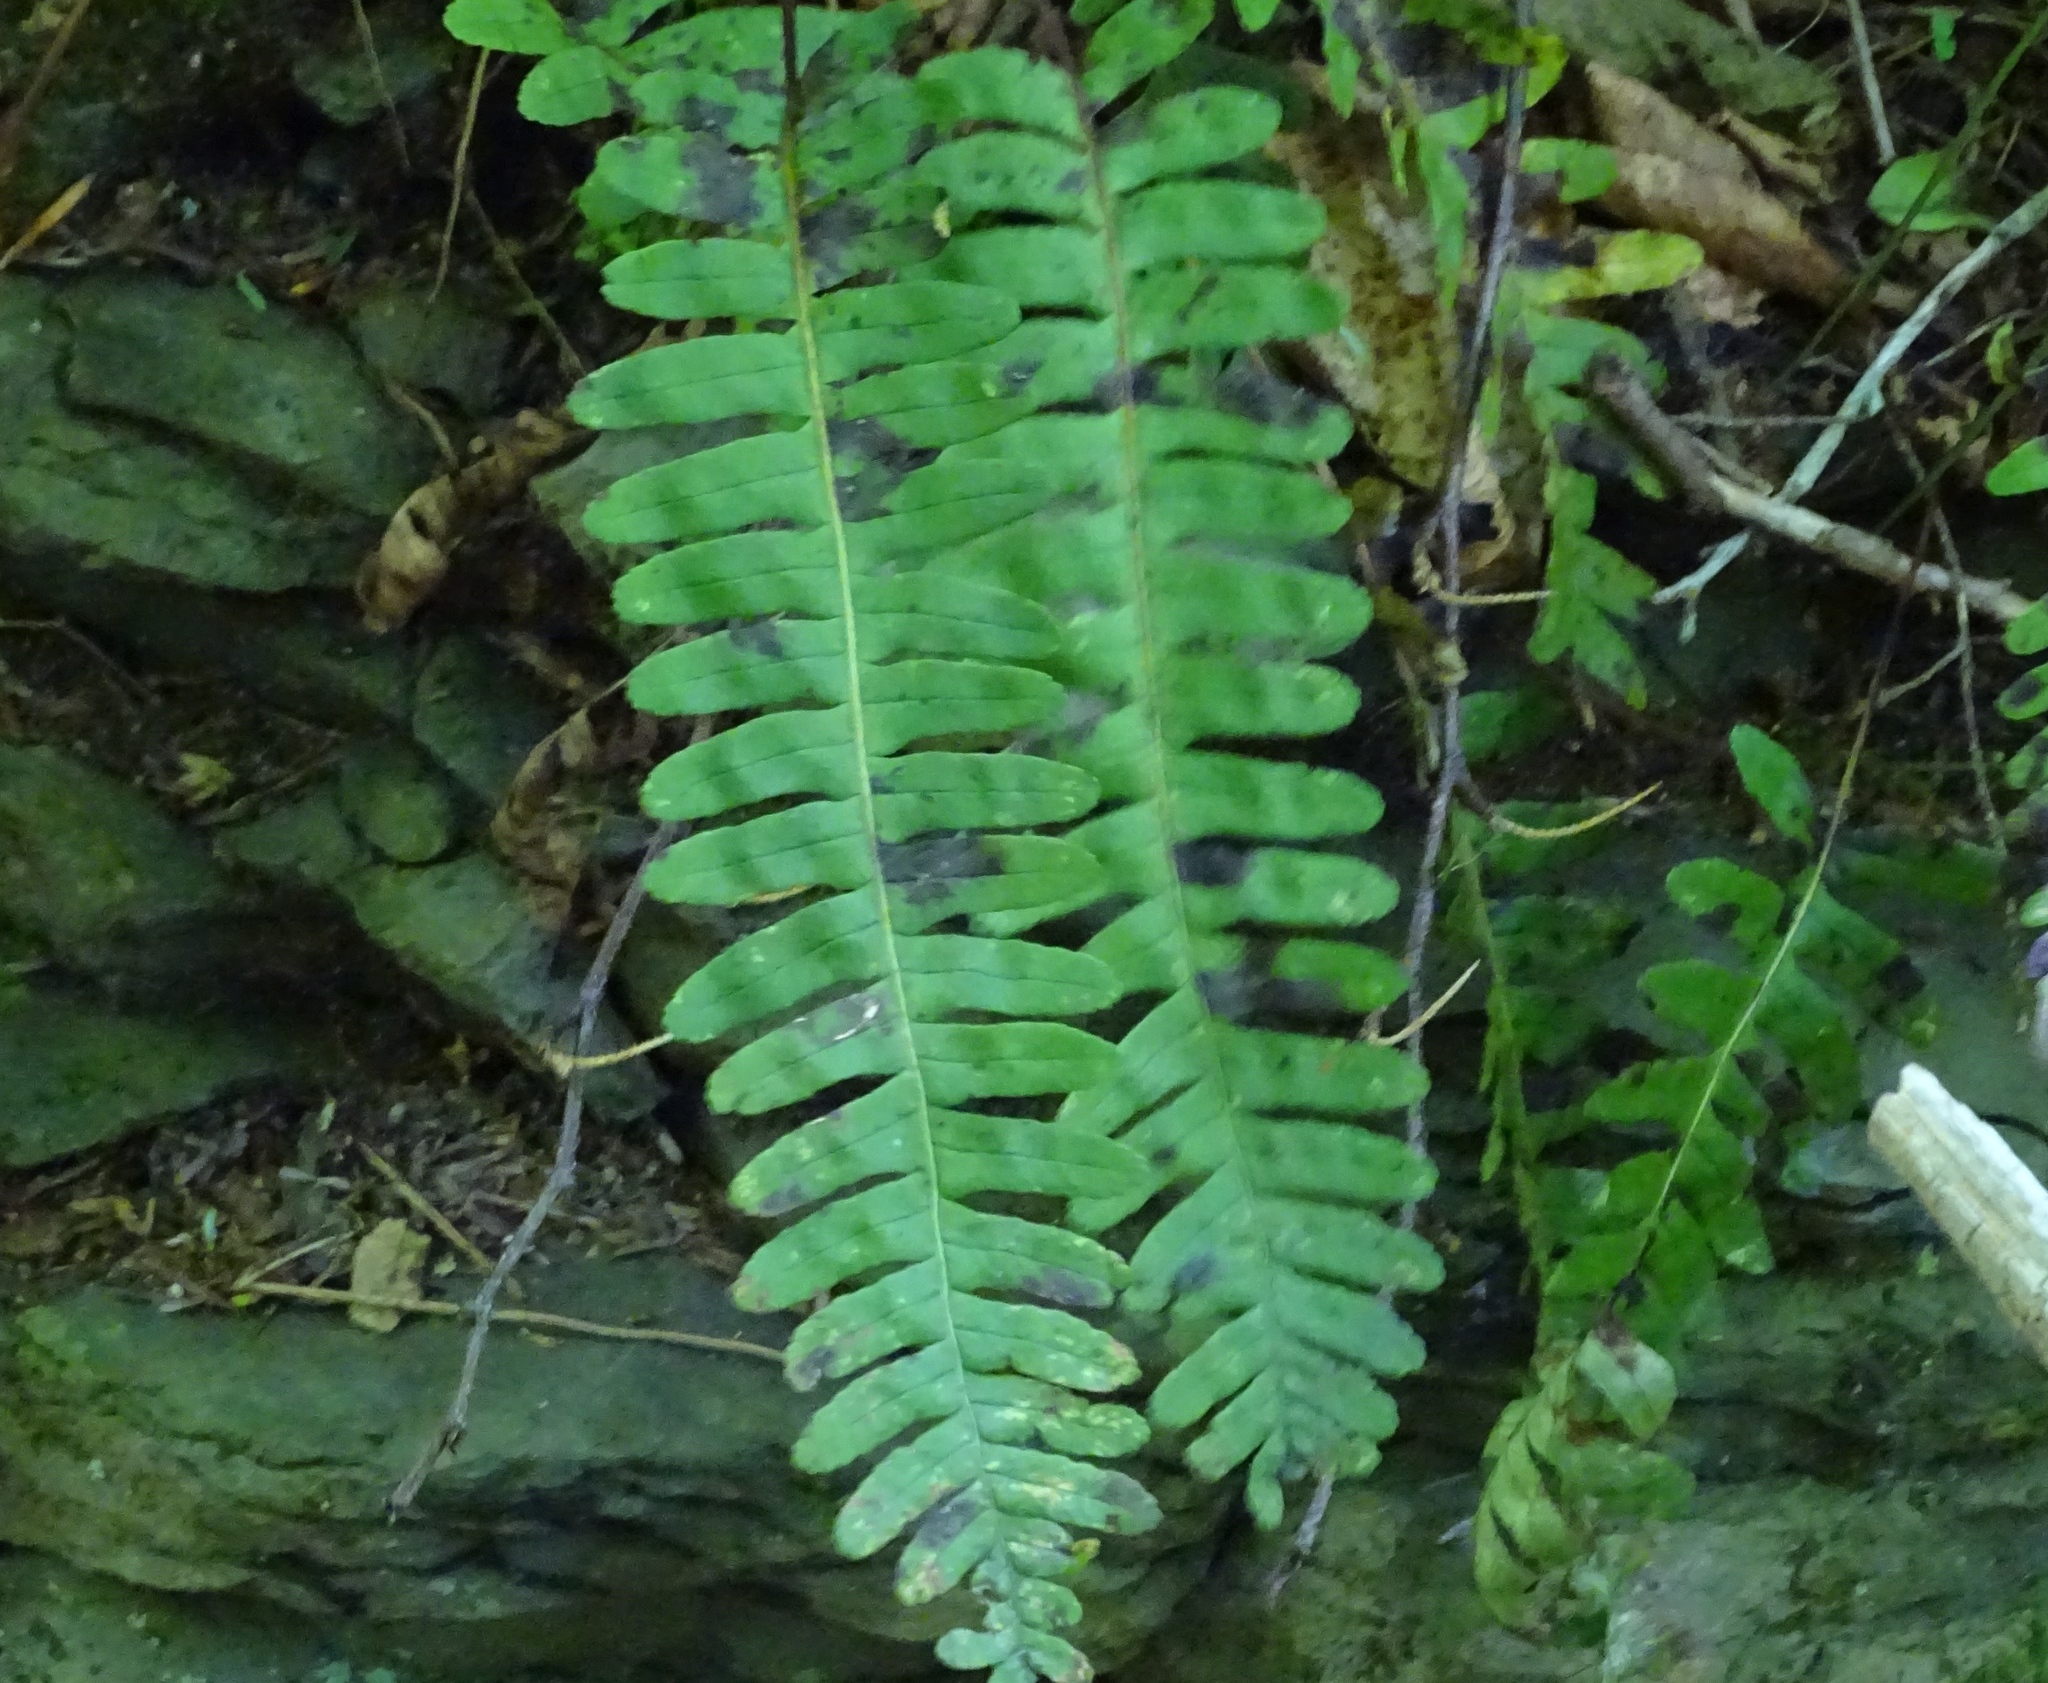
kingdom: Plantae
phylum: Tracheophyta
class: Polypodiopsida
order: Polypodiales
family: Polypodiaceae
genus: Polypodium
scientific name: Polypodium virginianum
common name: American wall fern
